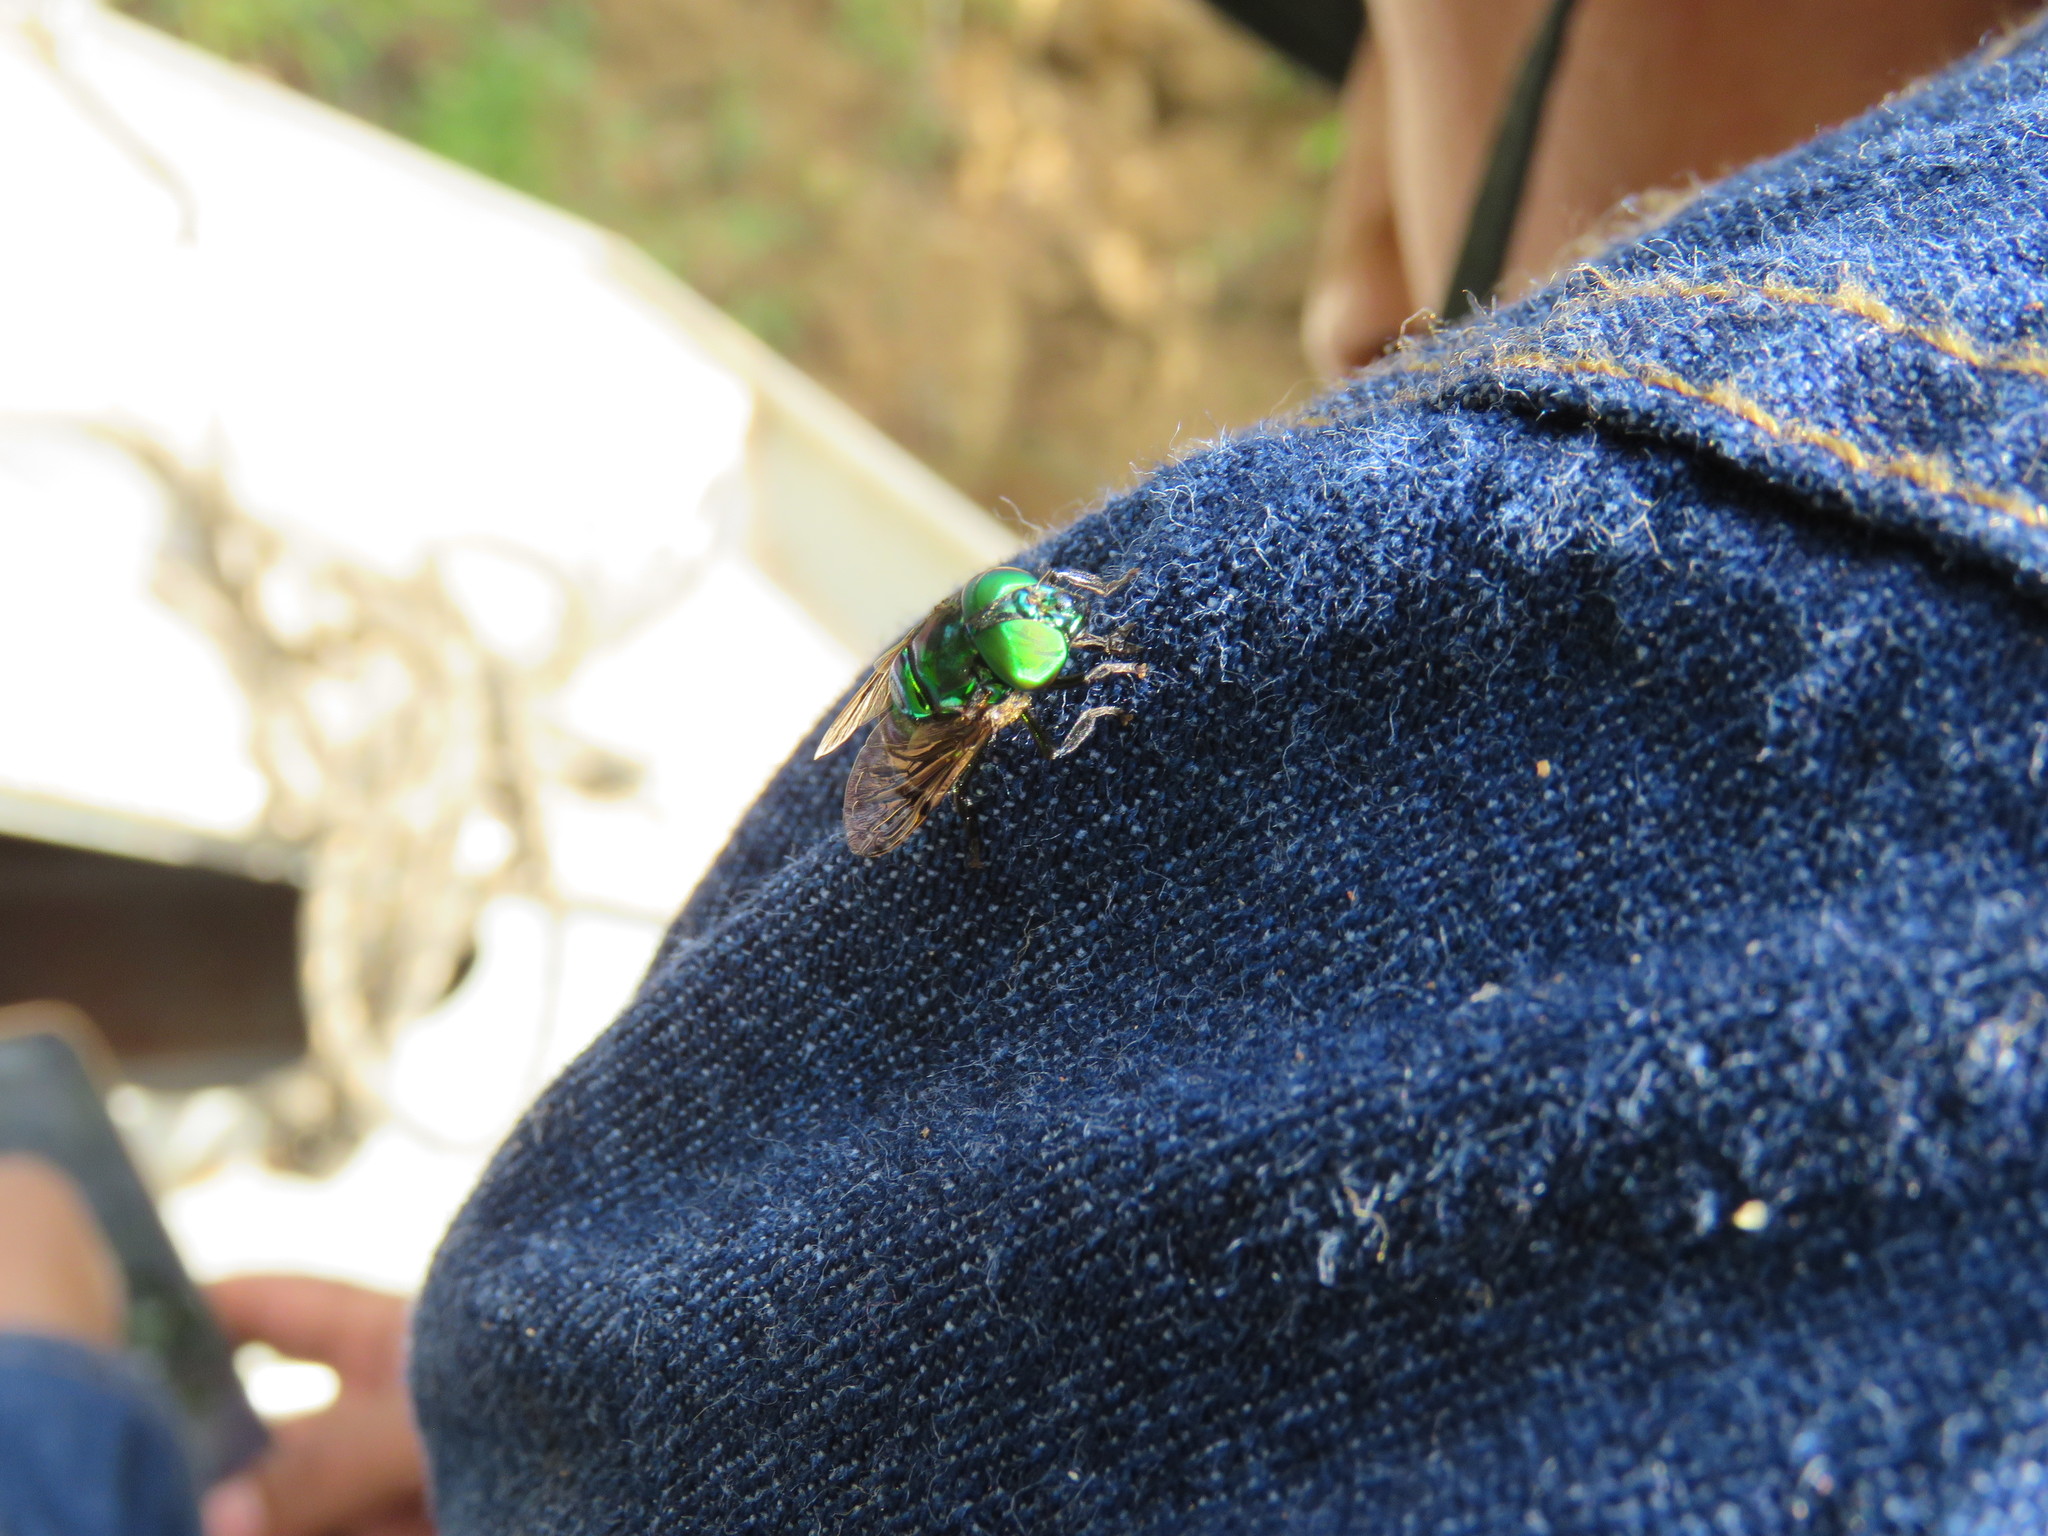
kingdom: Animalia
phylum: Arthropoda
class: Insecta
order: Diptera
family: Syrphidae
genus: Ornidia
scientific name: Ornidia obesa
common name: Syrphid fly
